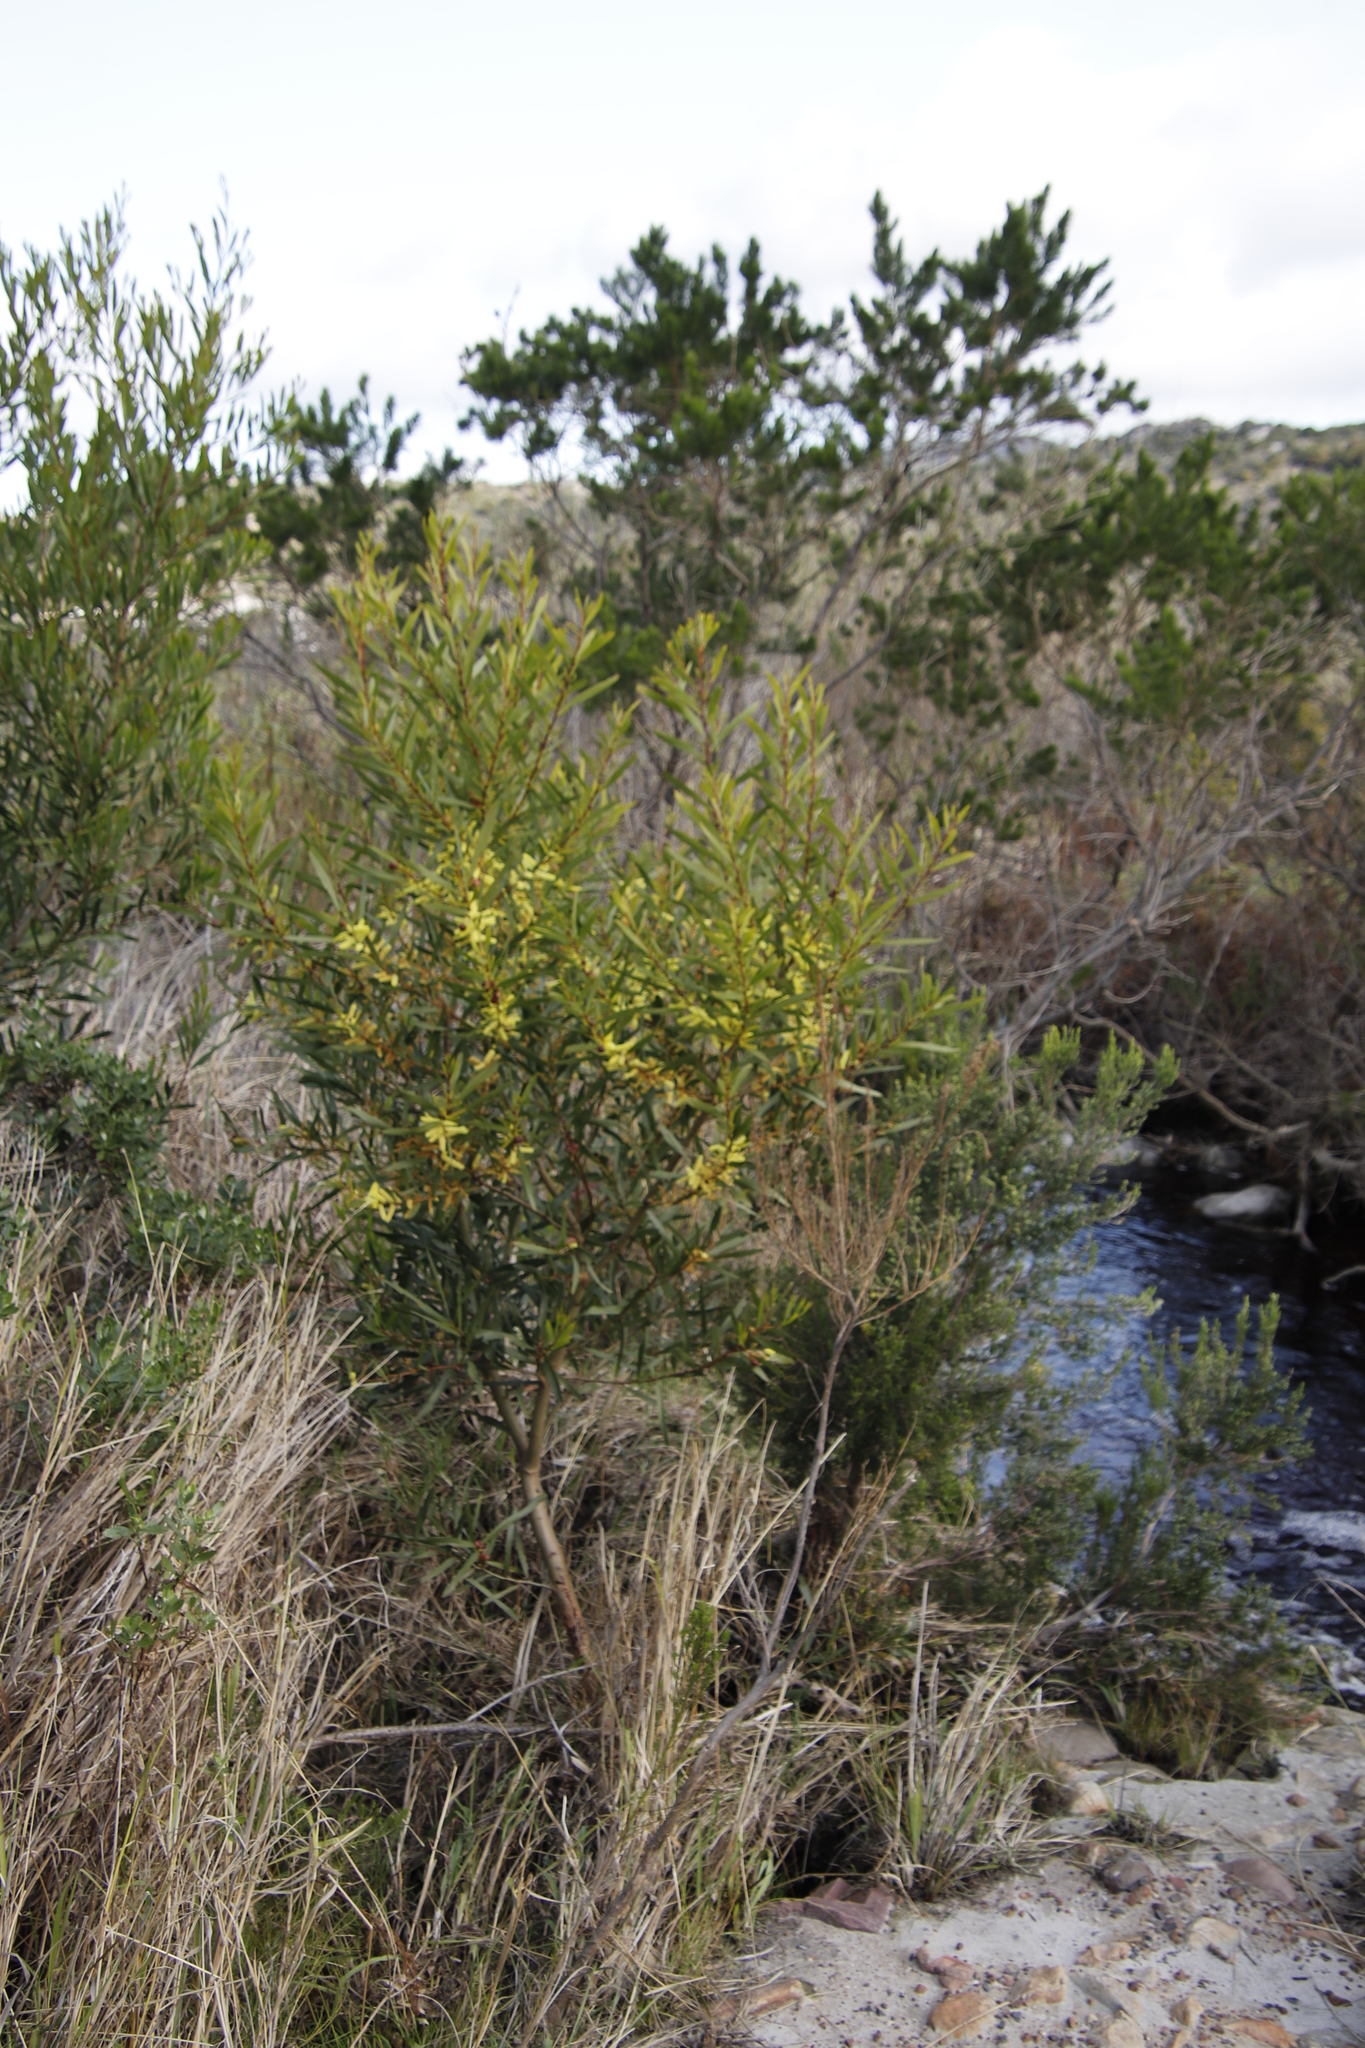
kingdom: Plantae
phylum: Tracheophyta
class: Magnoliopsida
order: Fabales
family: Fabaceae
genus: Acacia
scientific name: Acacia longifolia
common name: Sydney golden wattle
